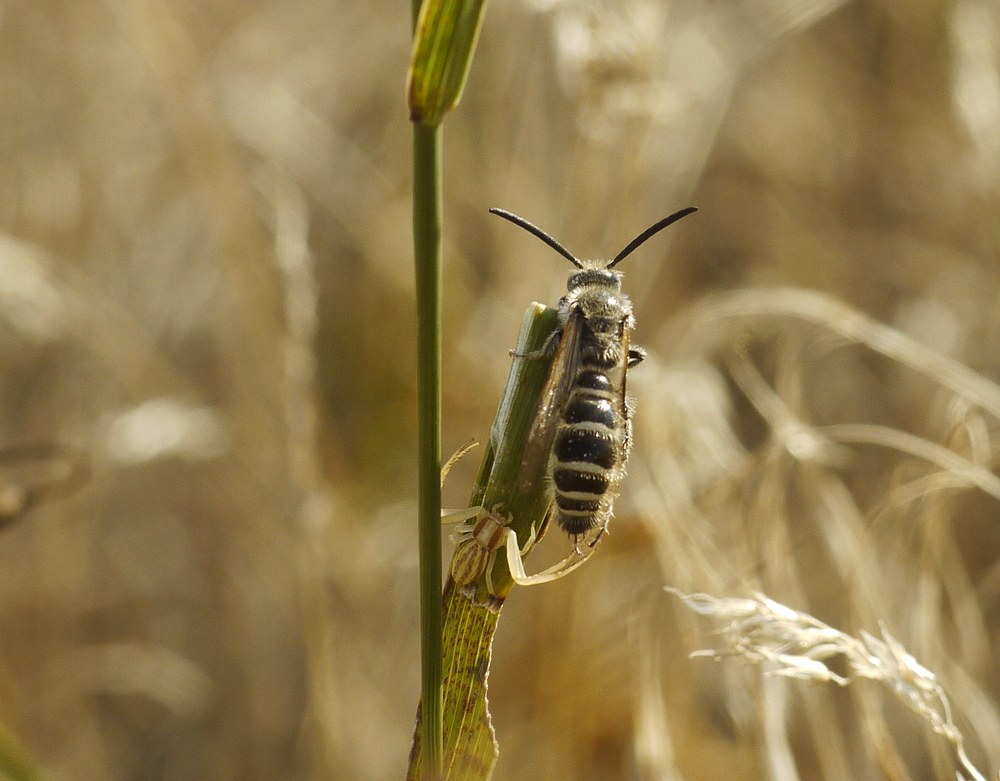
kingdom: Animalia
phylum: Arthropoda
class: Insecta
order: Hymenoptera
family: Scoliidae
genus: Colpa
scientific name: Colpa quinquecincta
